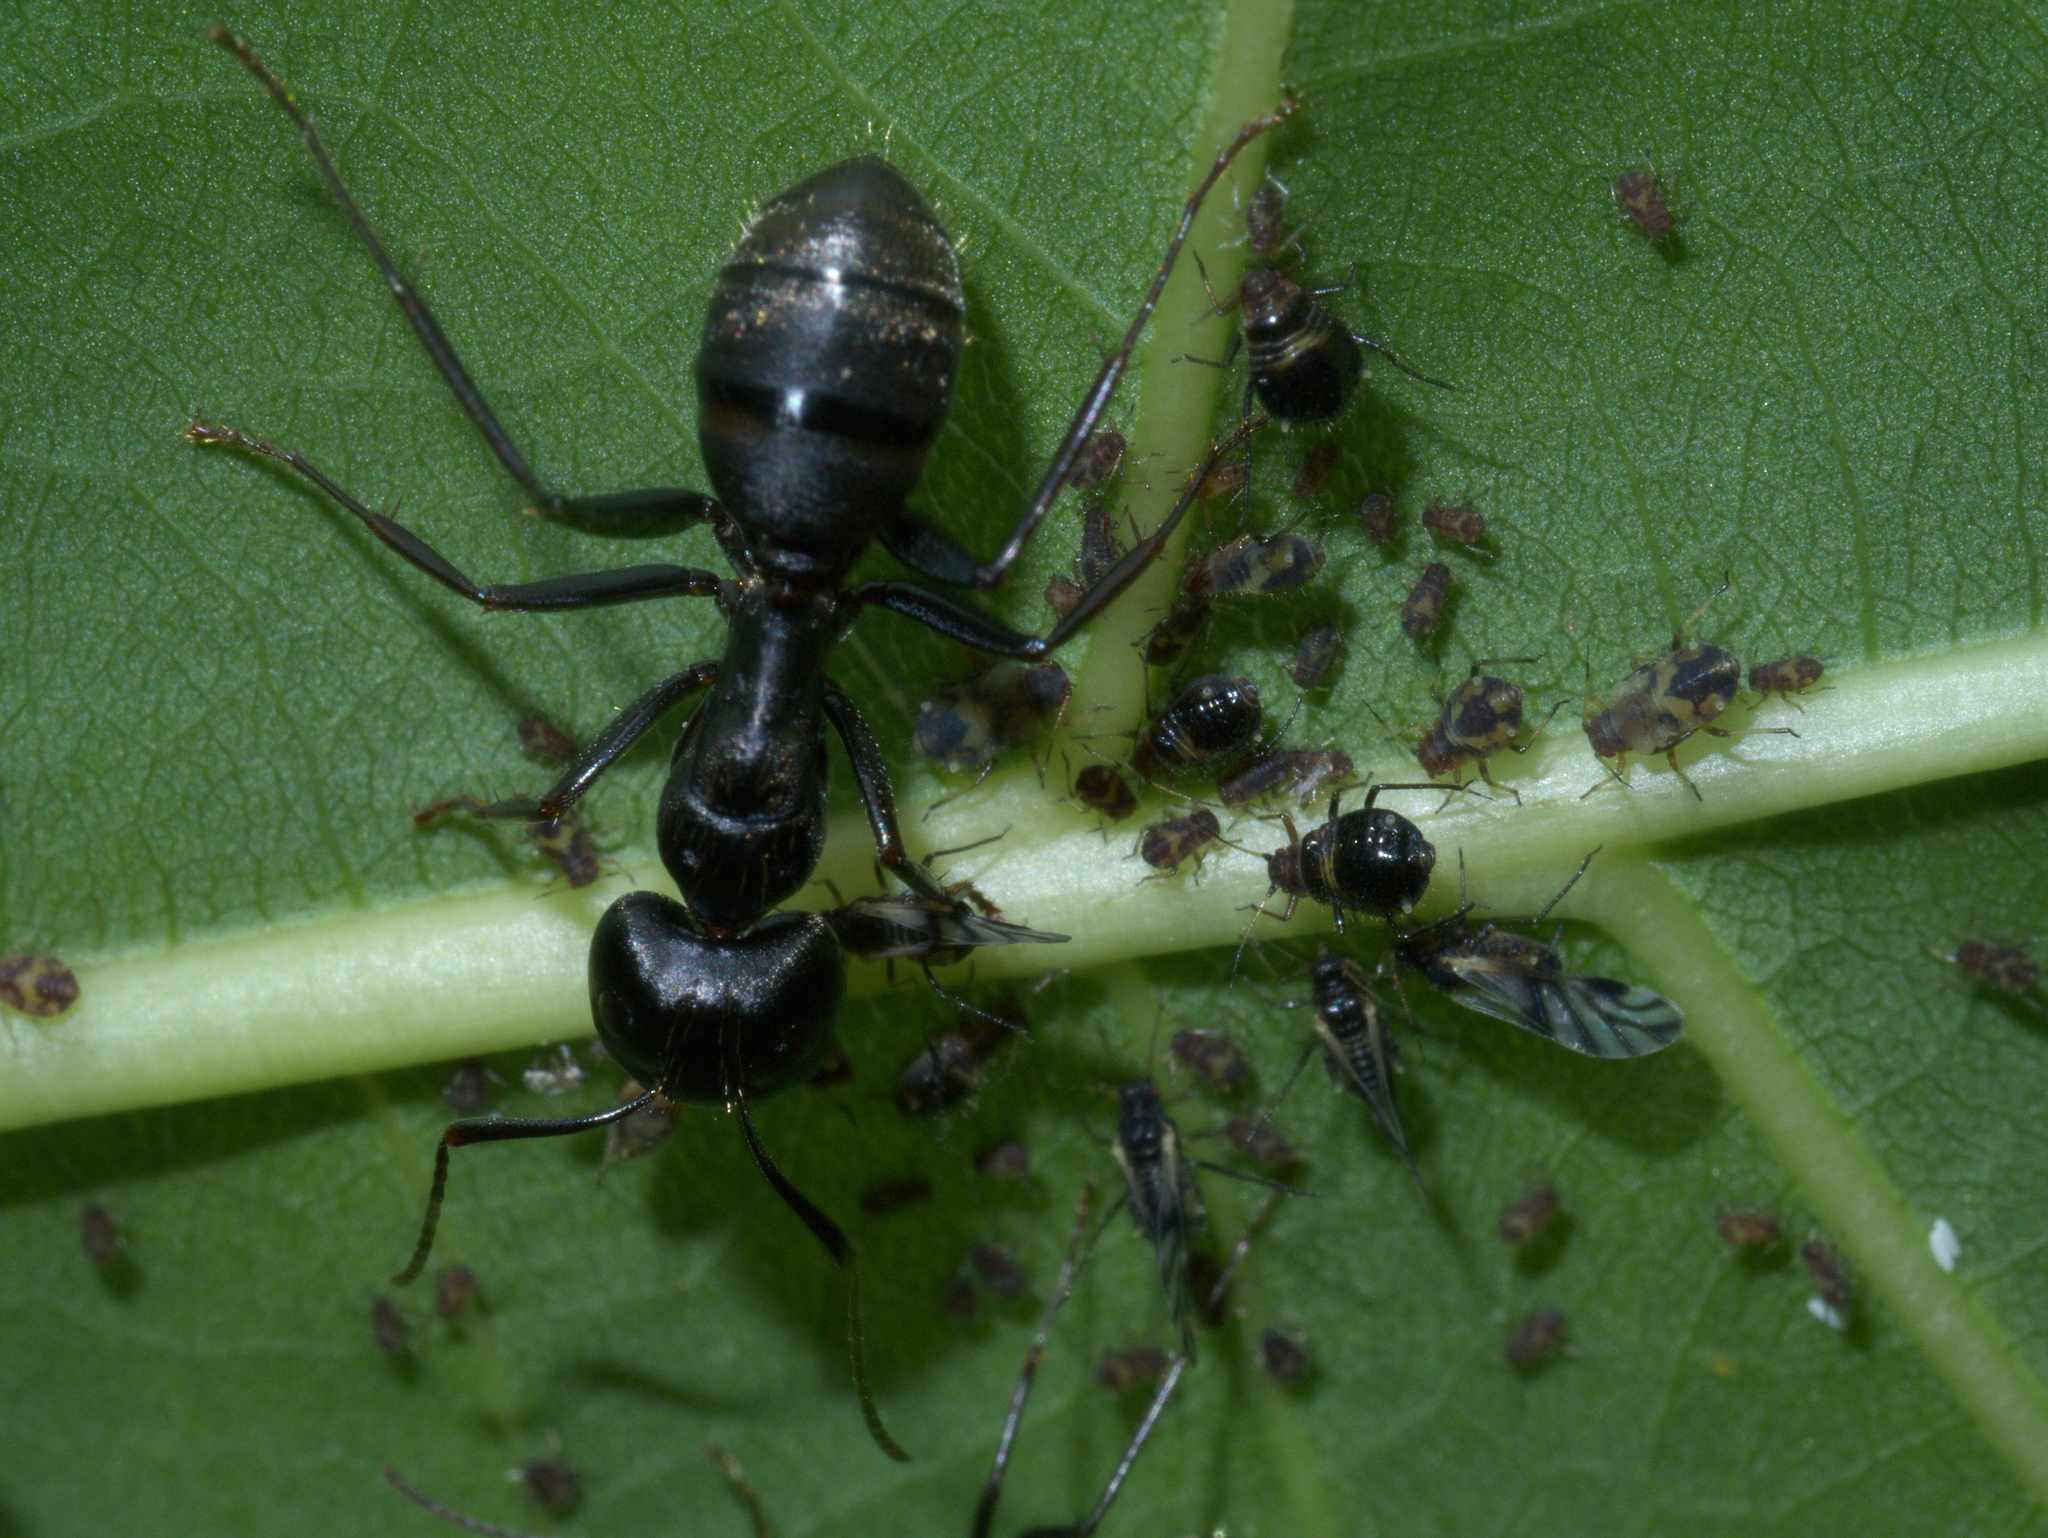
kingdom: Animalia
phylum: Arthropoda
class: Insecta
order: Hymenoptera
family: Formicidae
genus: Camponotus
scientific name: Camponotus pennsylvanicus
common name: Black carpenter ant
